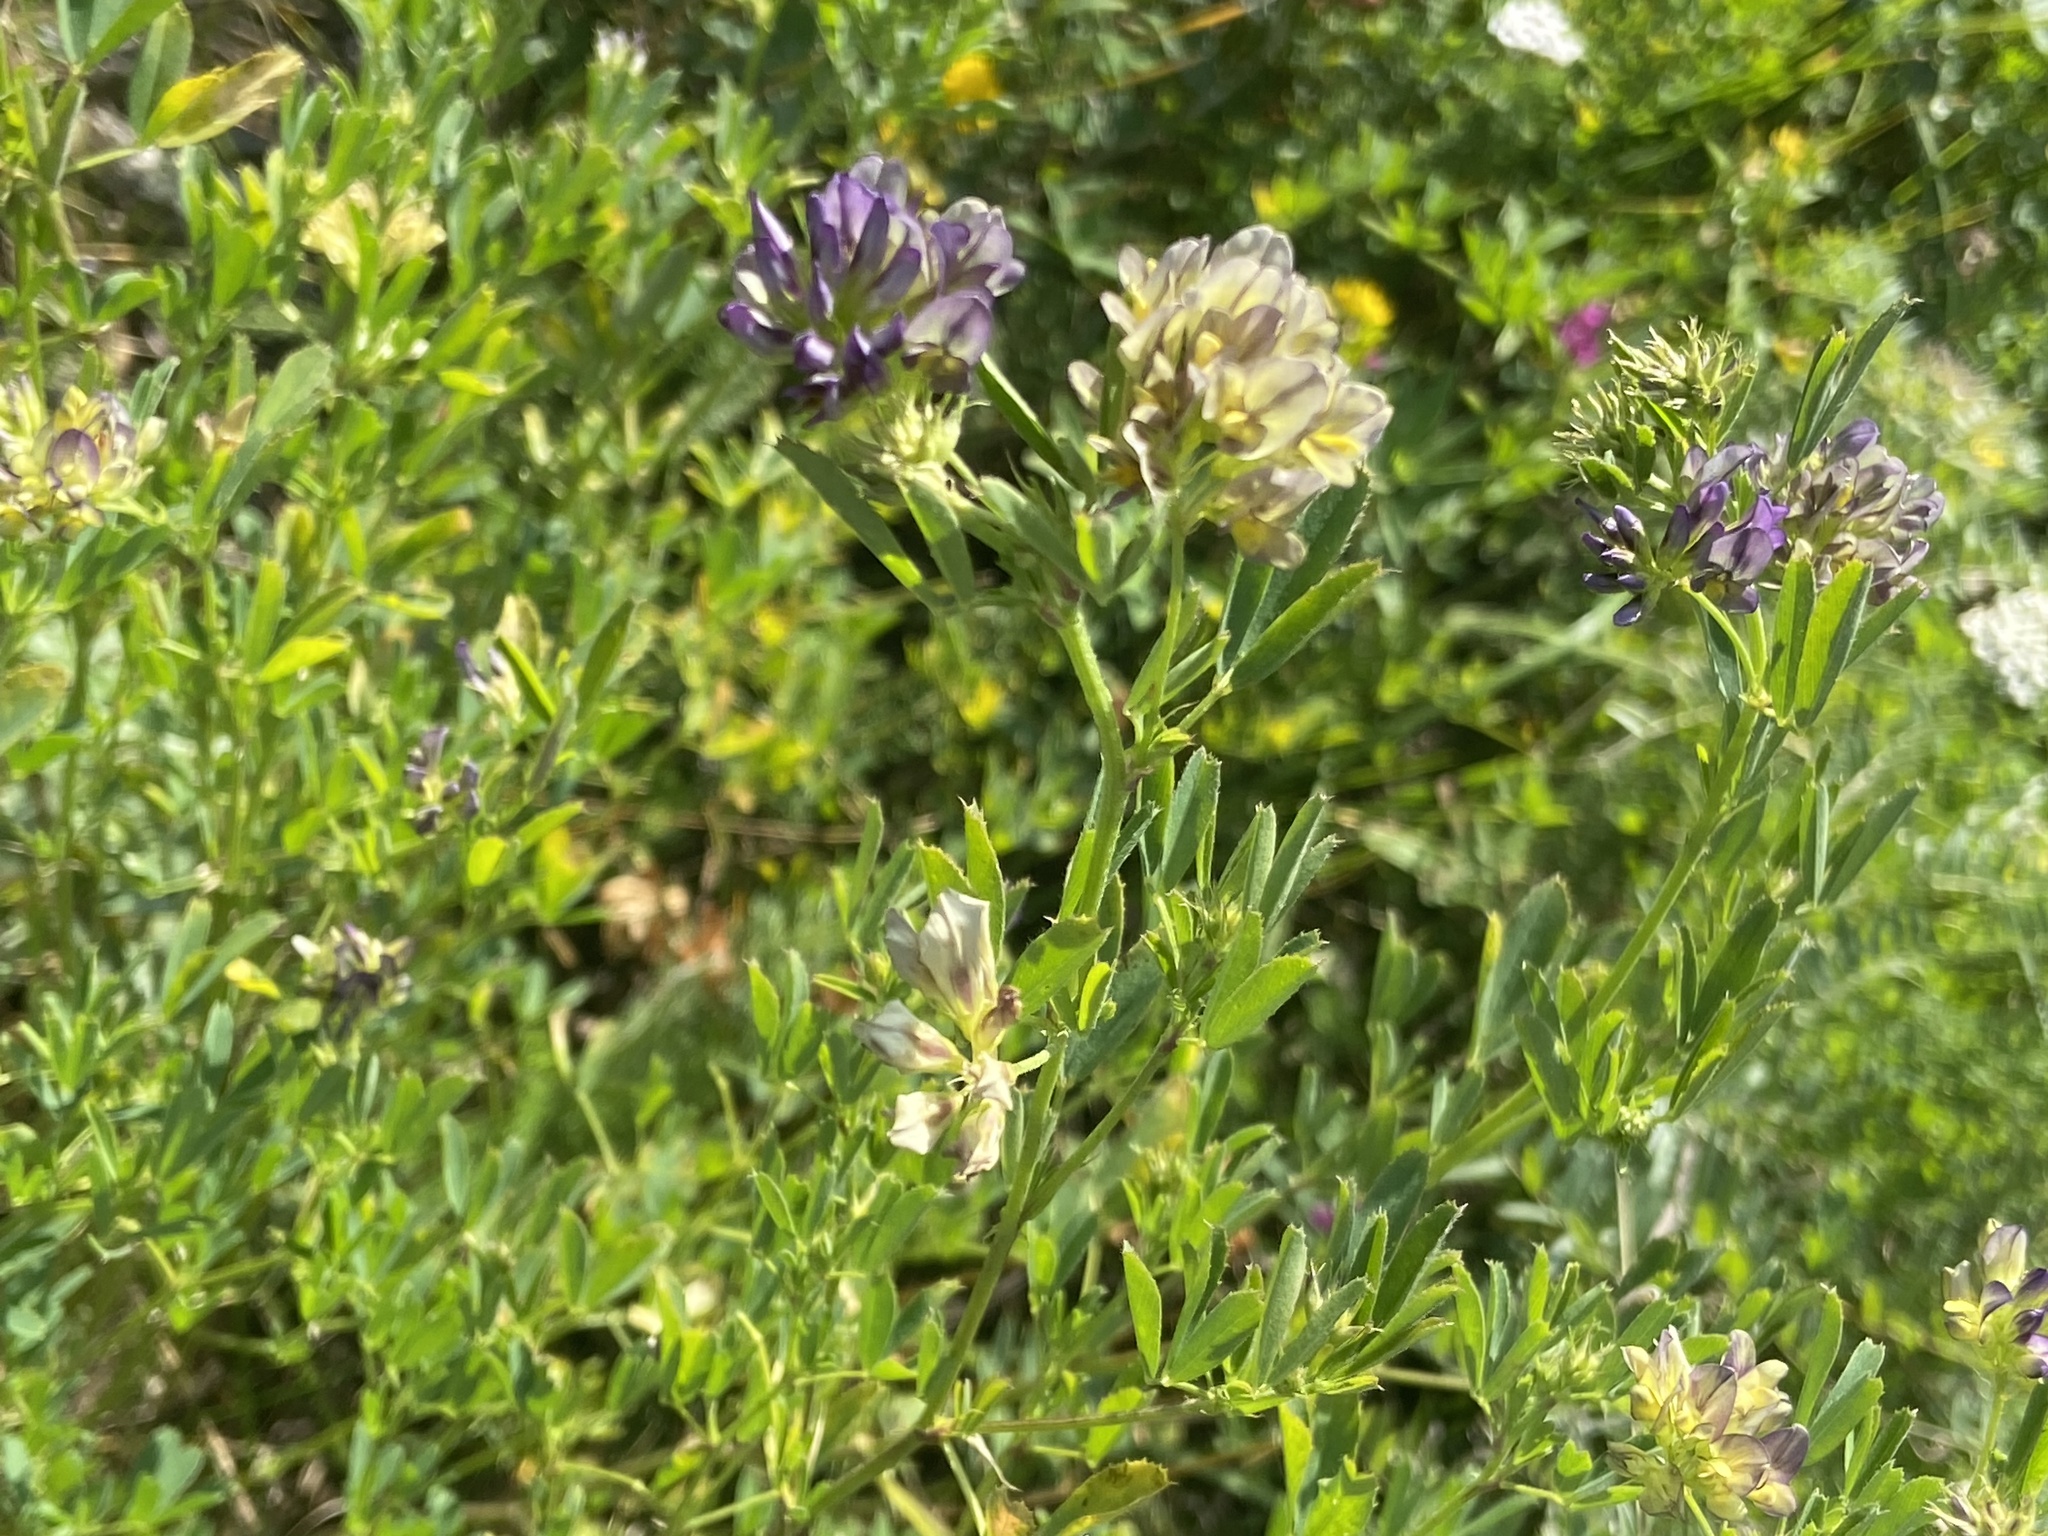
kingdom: Plantae
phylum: Tracheophyta
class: Magnoliopsida
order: Fabales
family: Fabaceae
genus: Medicago
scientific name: Medicago varia
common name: Sand lucerne
